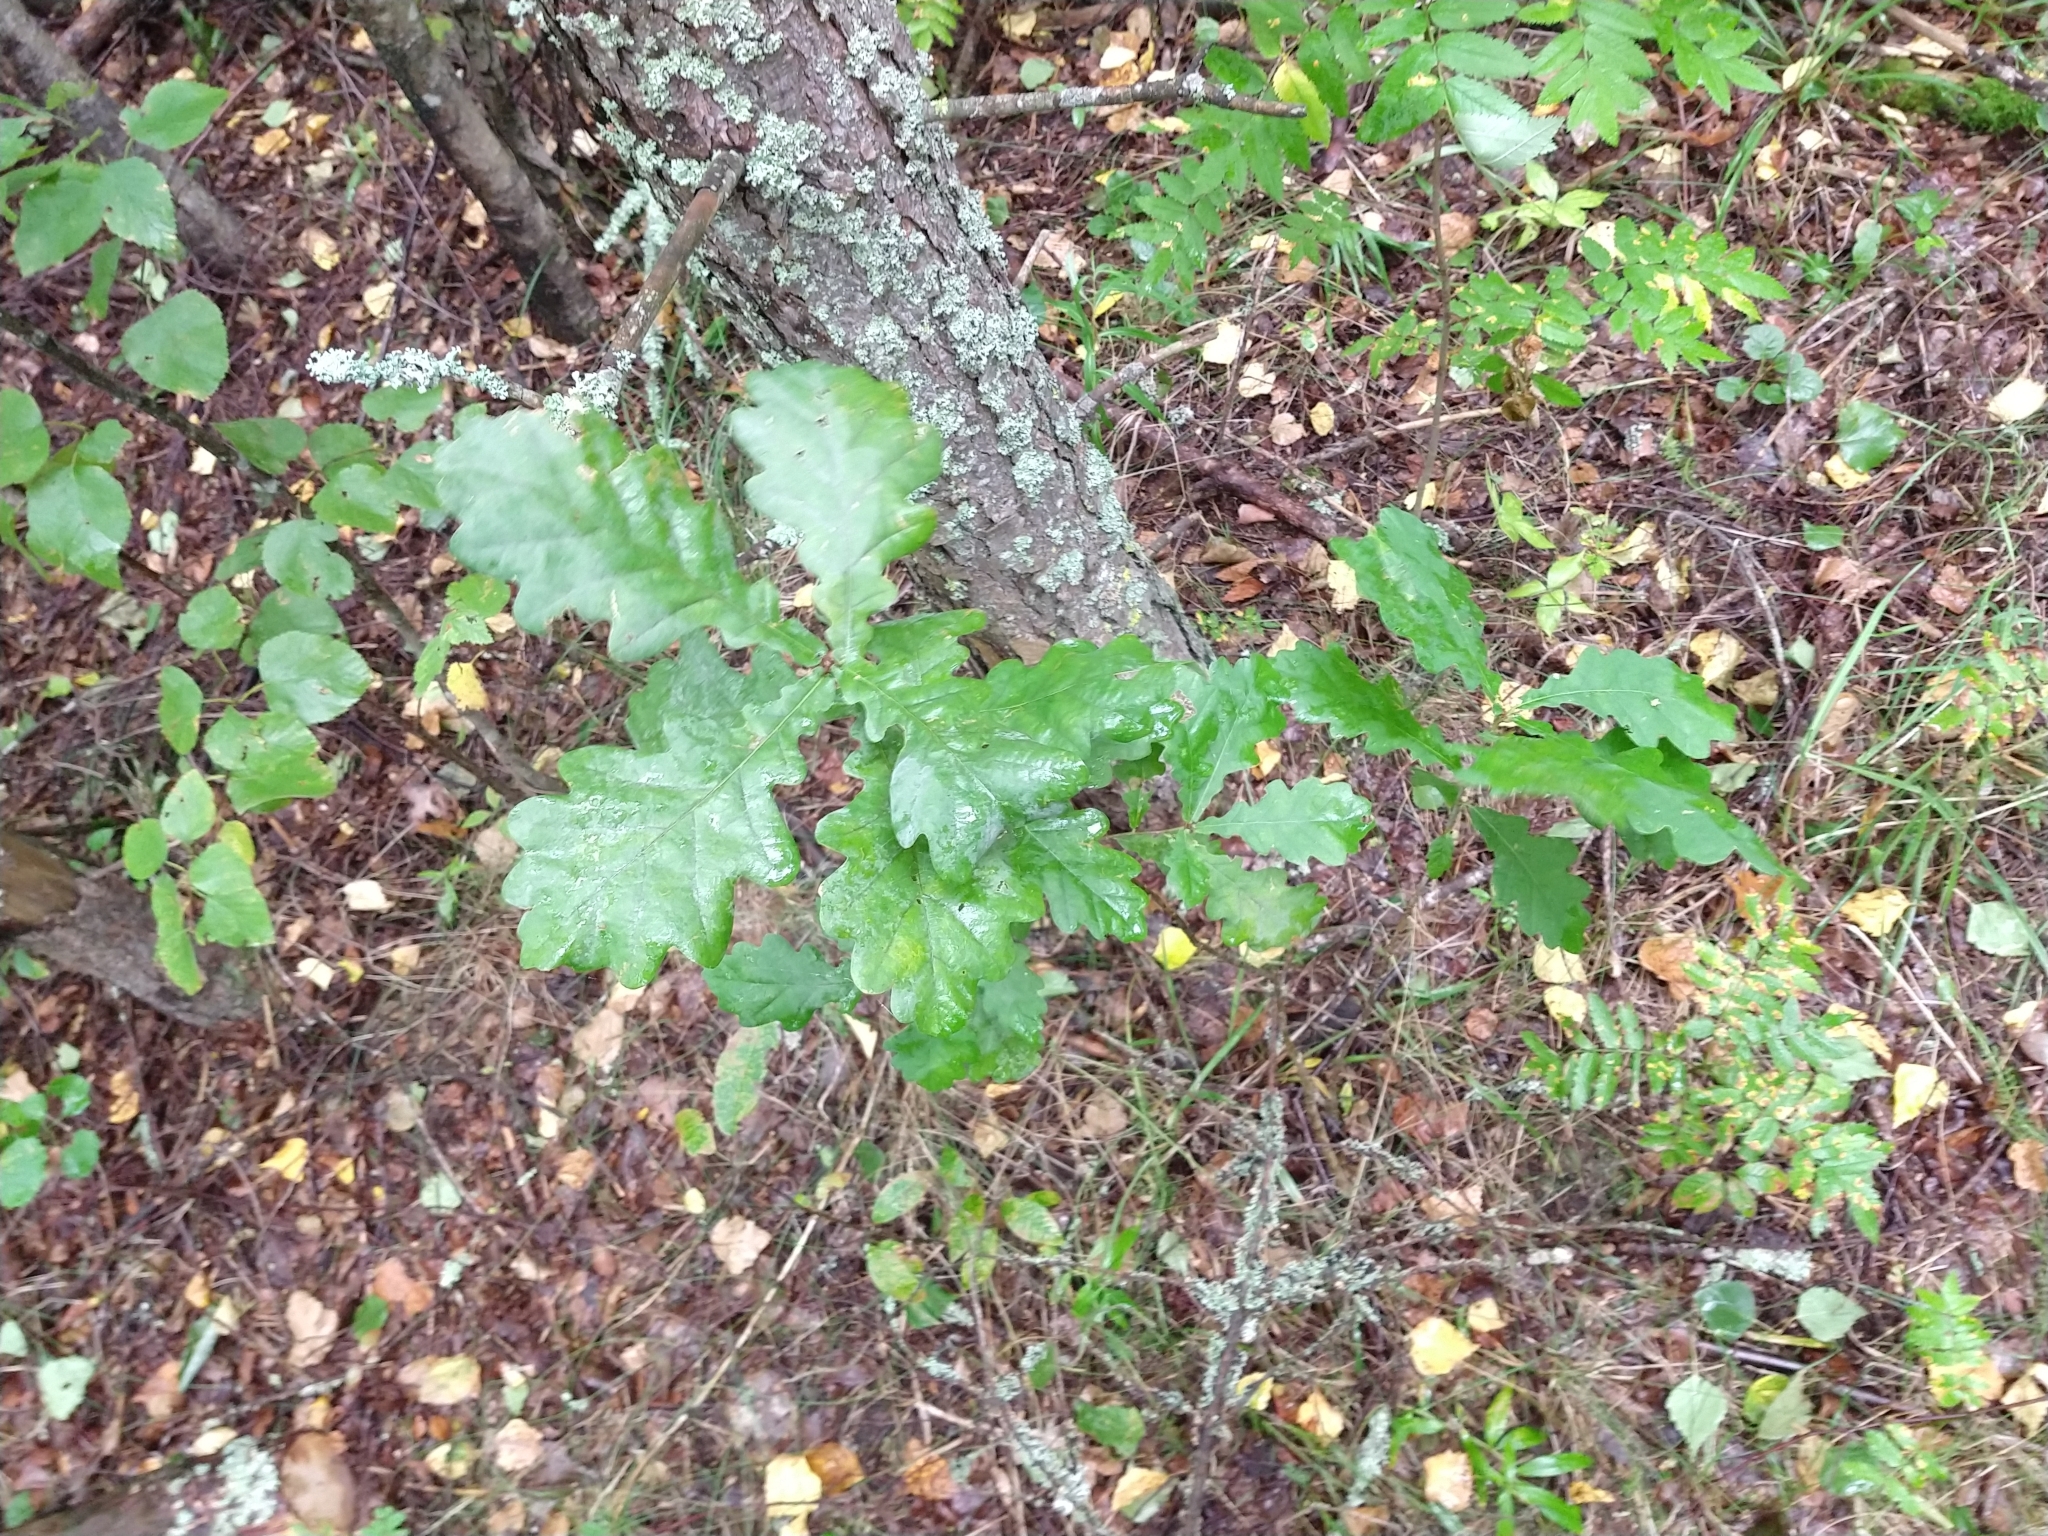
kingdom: Plantae
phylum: Tracheophyta
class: Magnoliopsida
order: Fagales
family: Fagaceae
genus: Quercus
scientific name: Quercus robur
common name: Pedunculate oak
